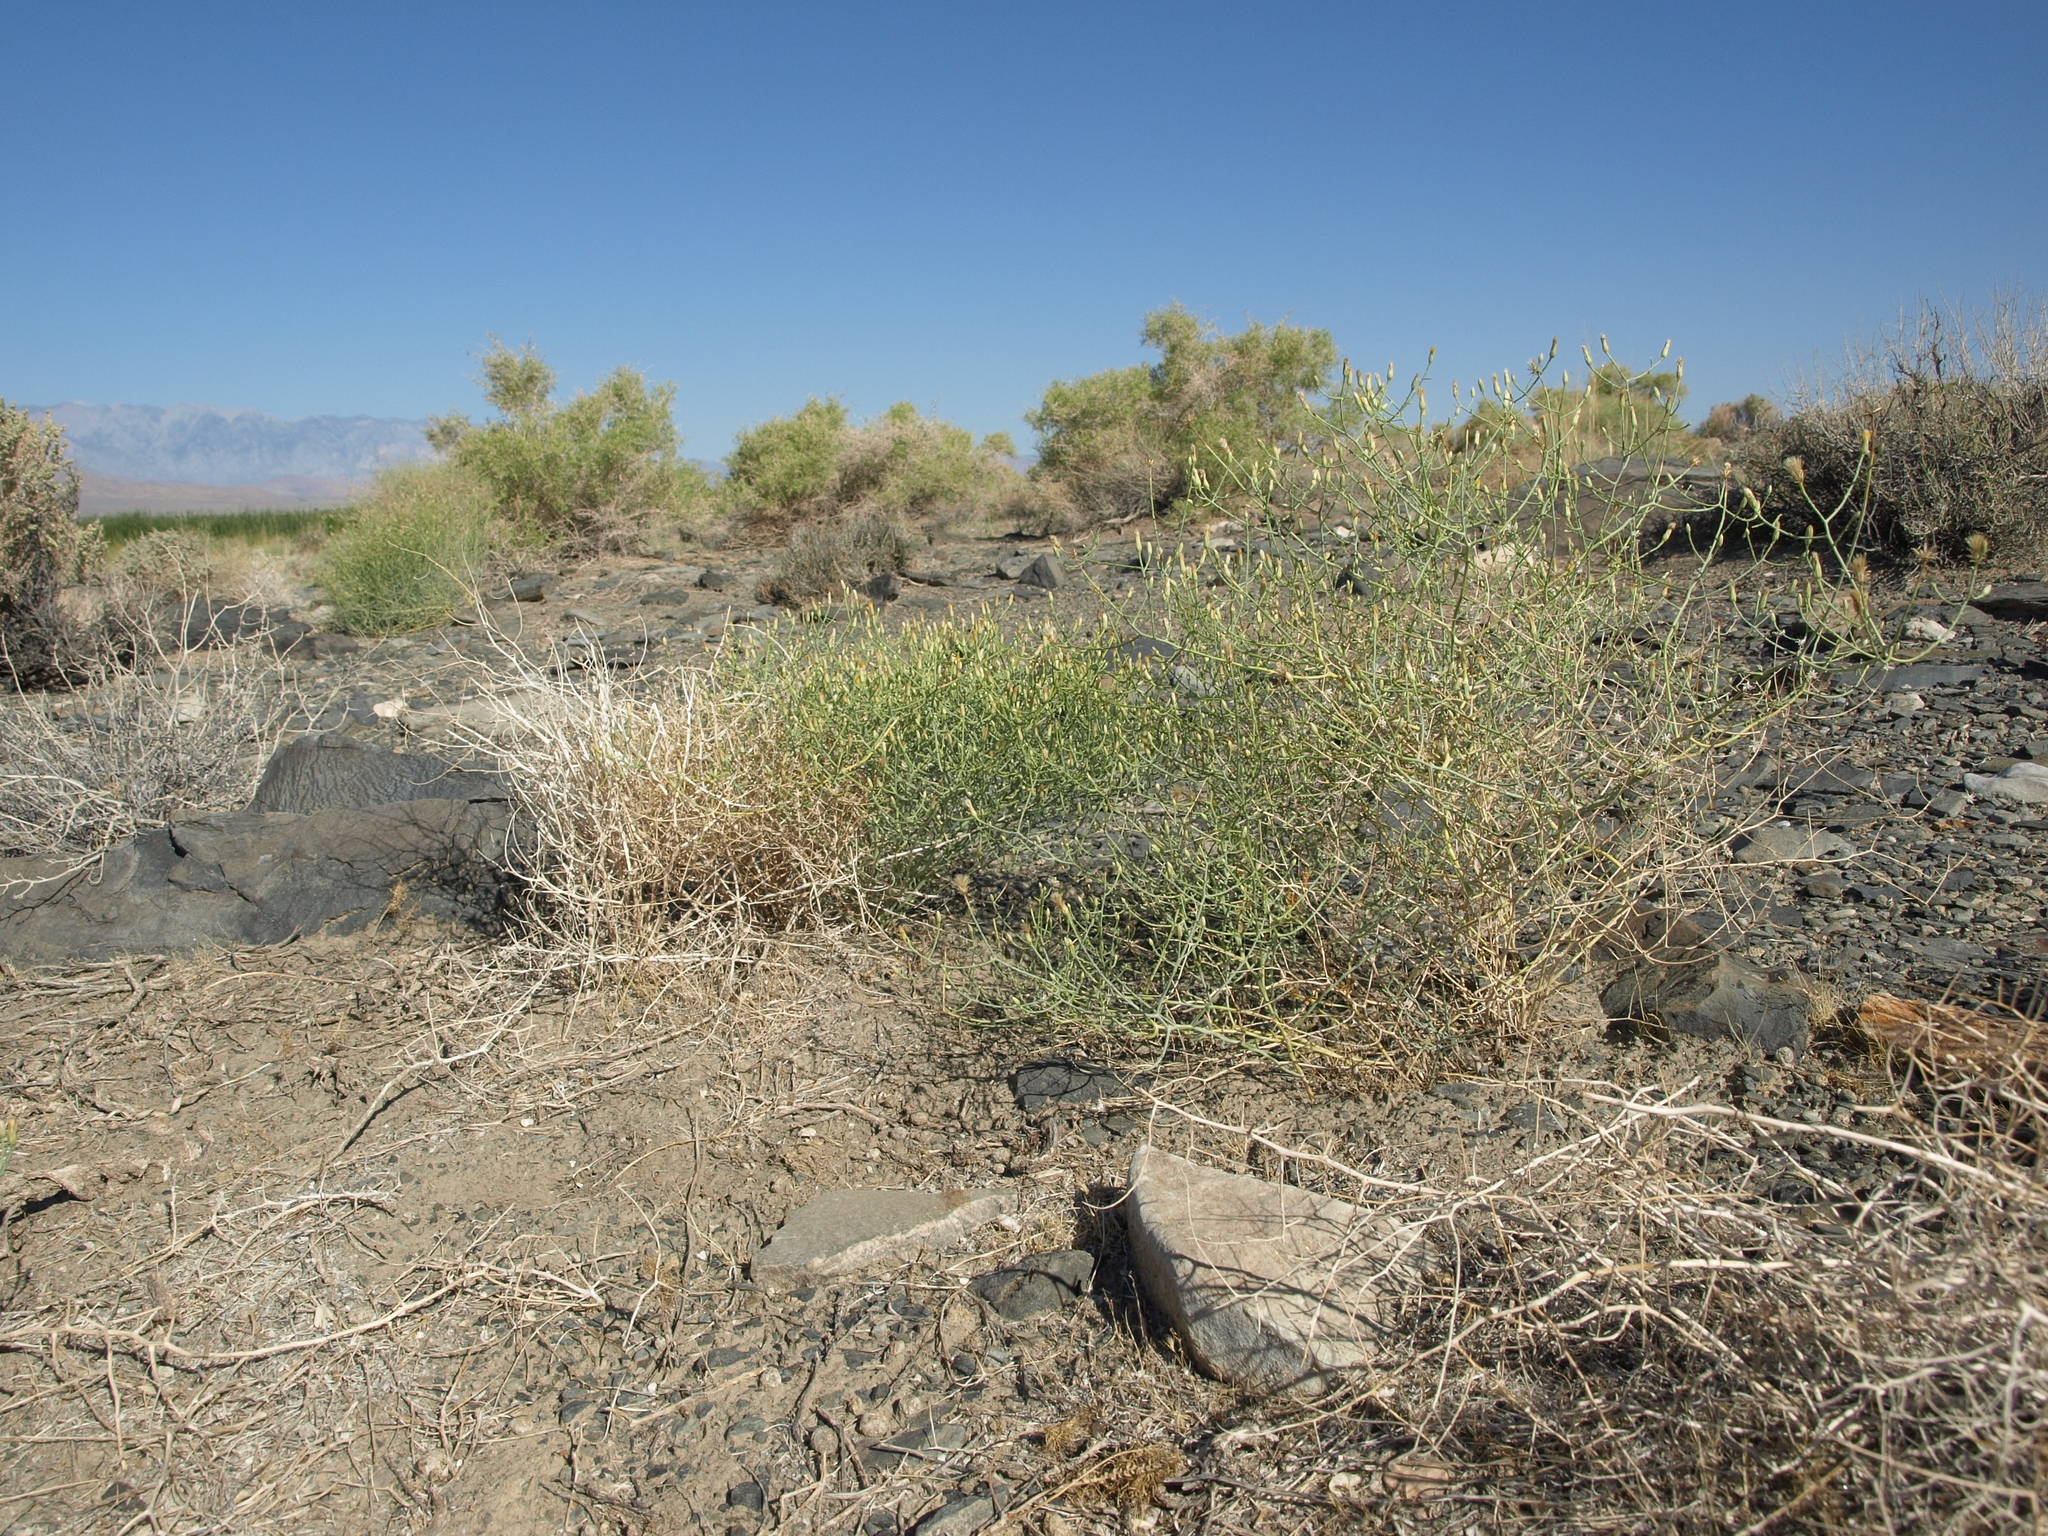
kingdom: Plantae
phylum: Tracheophyta
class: Magnoliopsida
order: Asterales
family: Asteraceae
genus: Leucosyris
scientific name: Leucosyris carnosa
